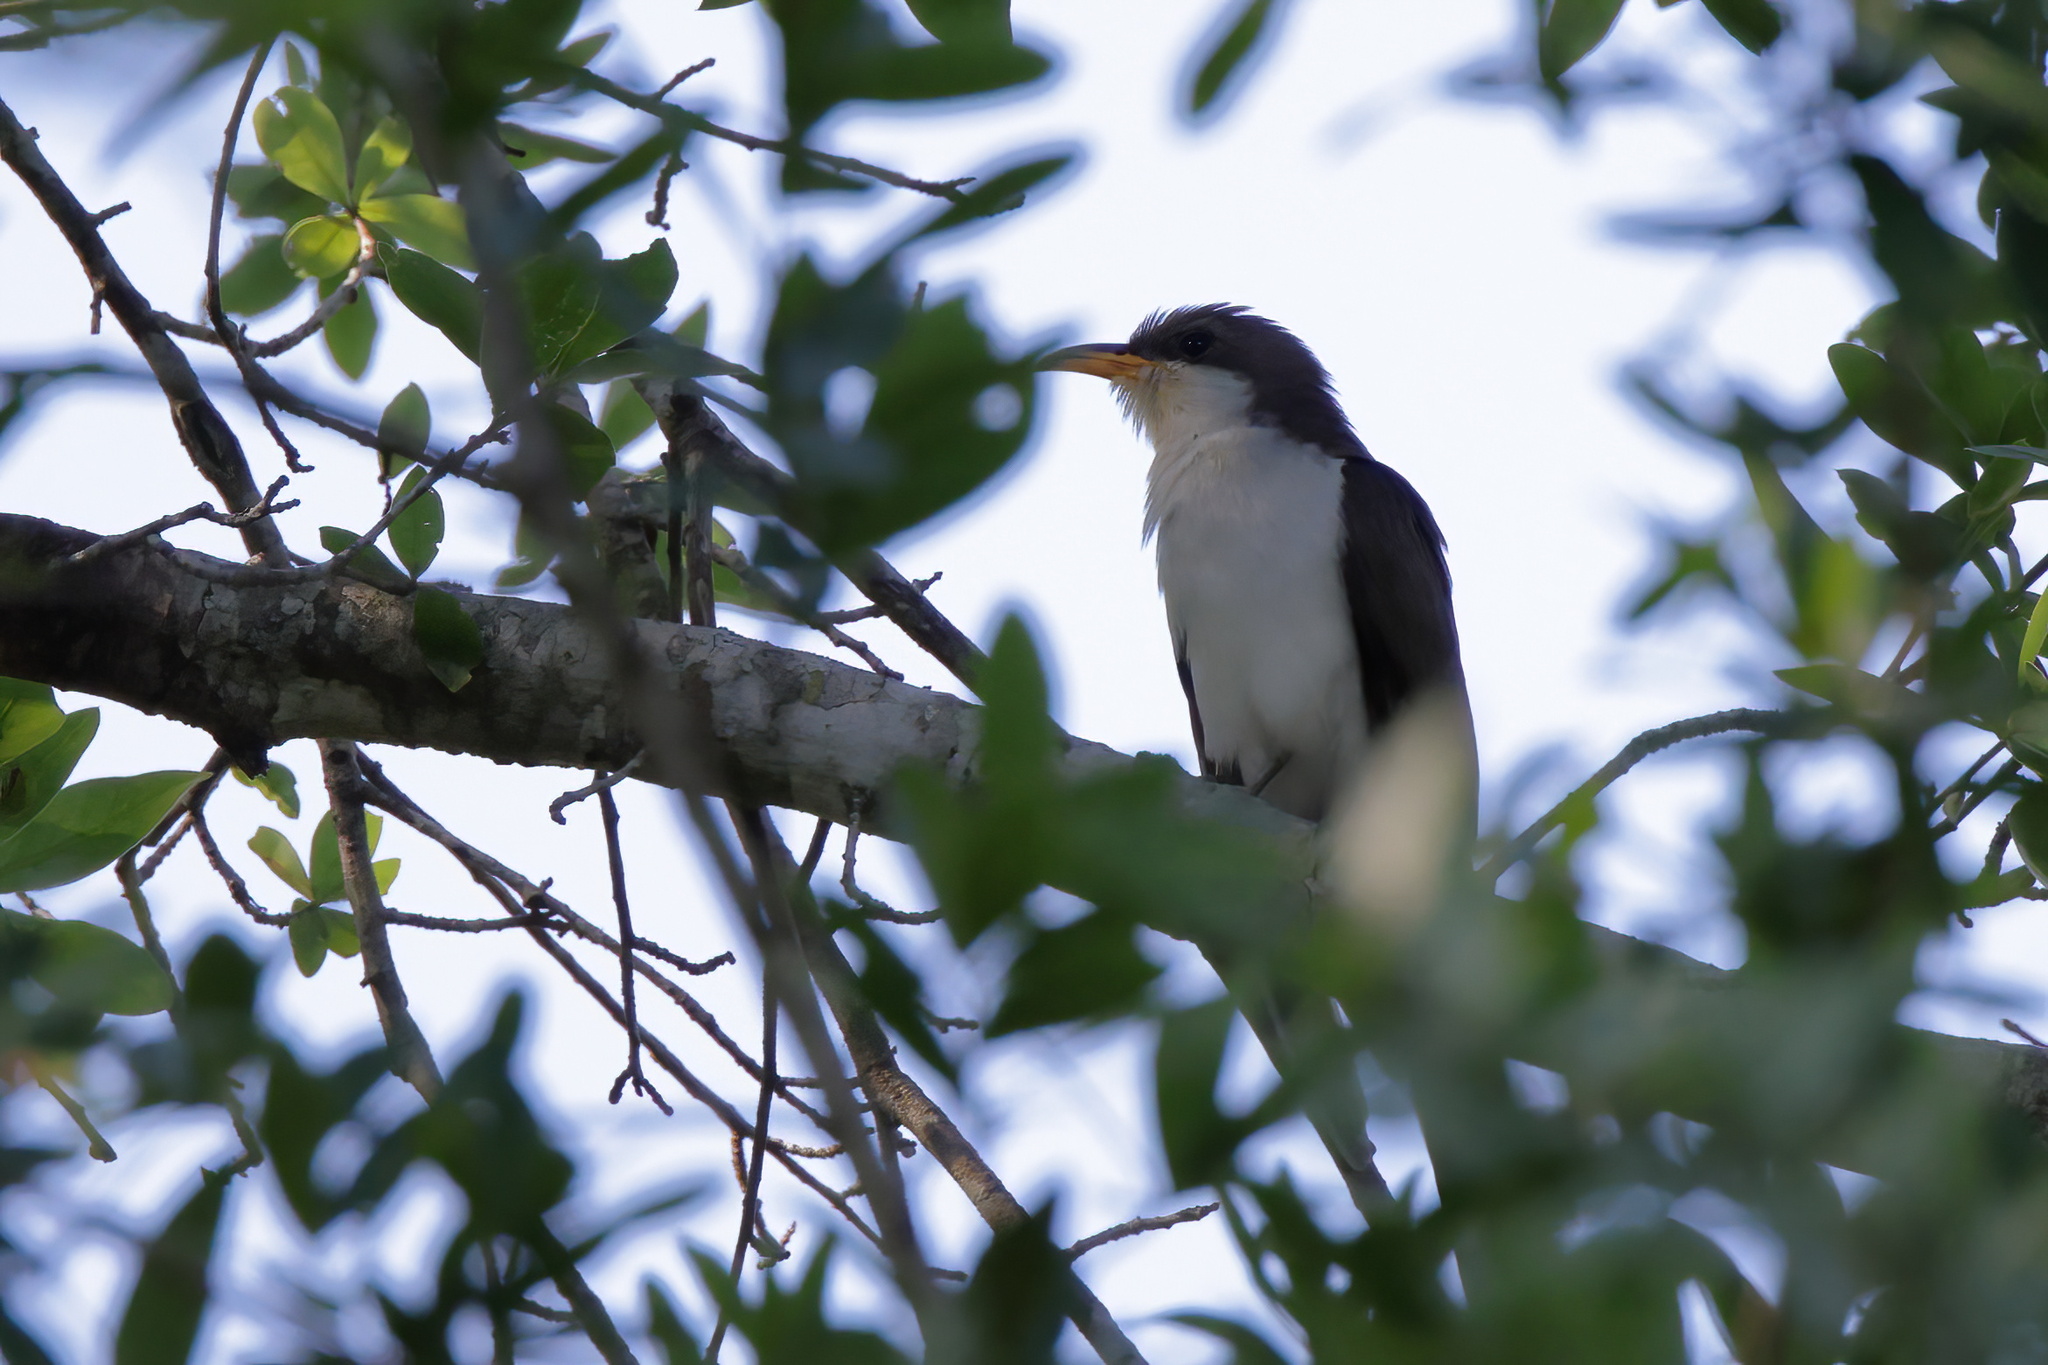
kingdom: Animalia
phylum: Chordata
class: Aves
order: Cuculiformes
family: Cuculidae
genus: Coccyzus
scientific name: Coccyzus americanus
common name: Yellow-billed cuckoo
